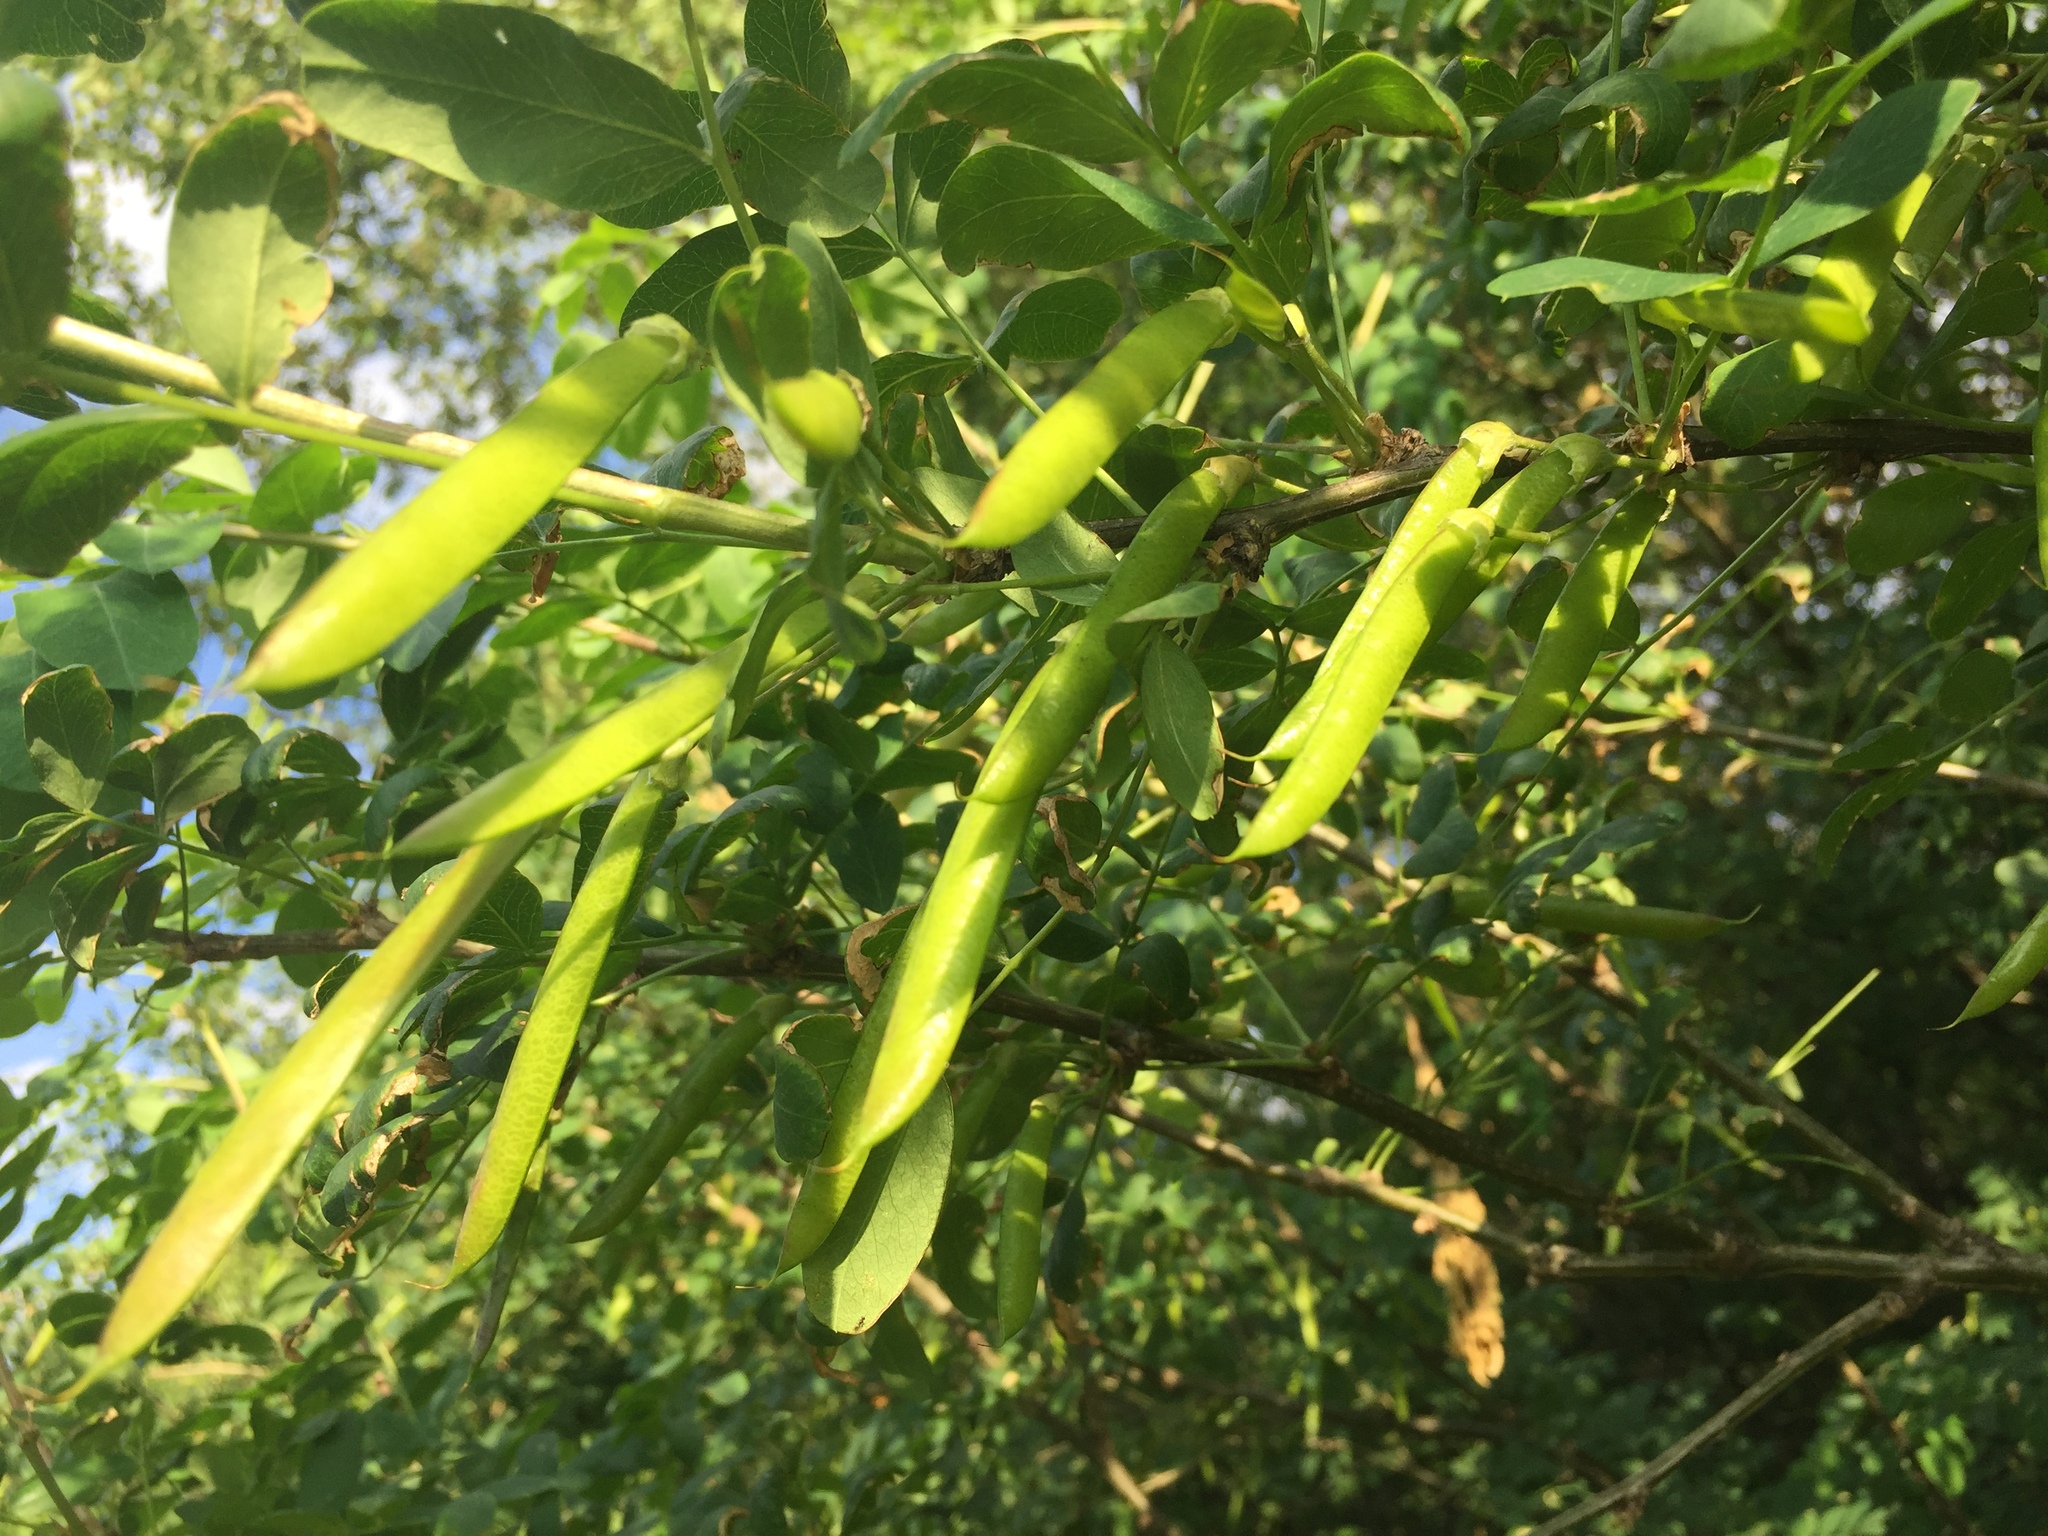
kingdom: Plantae
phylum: Tracheophyta
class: Magnoliopsida
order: Fabales
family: Fabaceae
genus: Caragana
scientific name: Caragana arborescens
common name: Siberian peashrub
